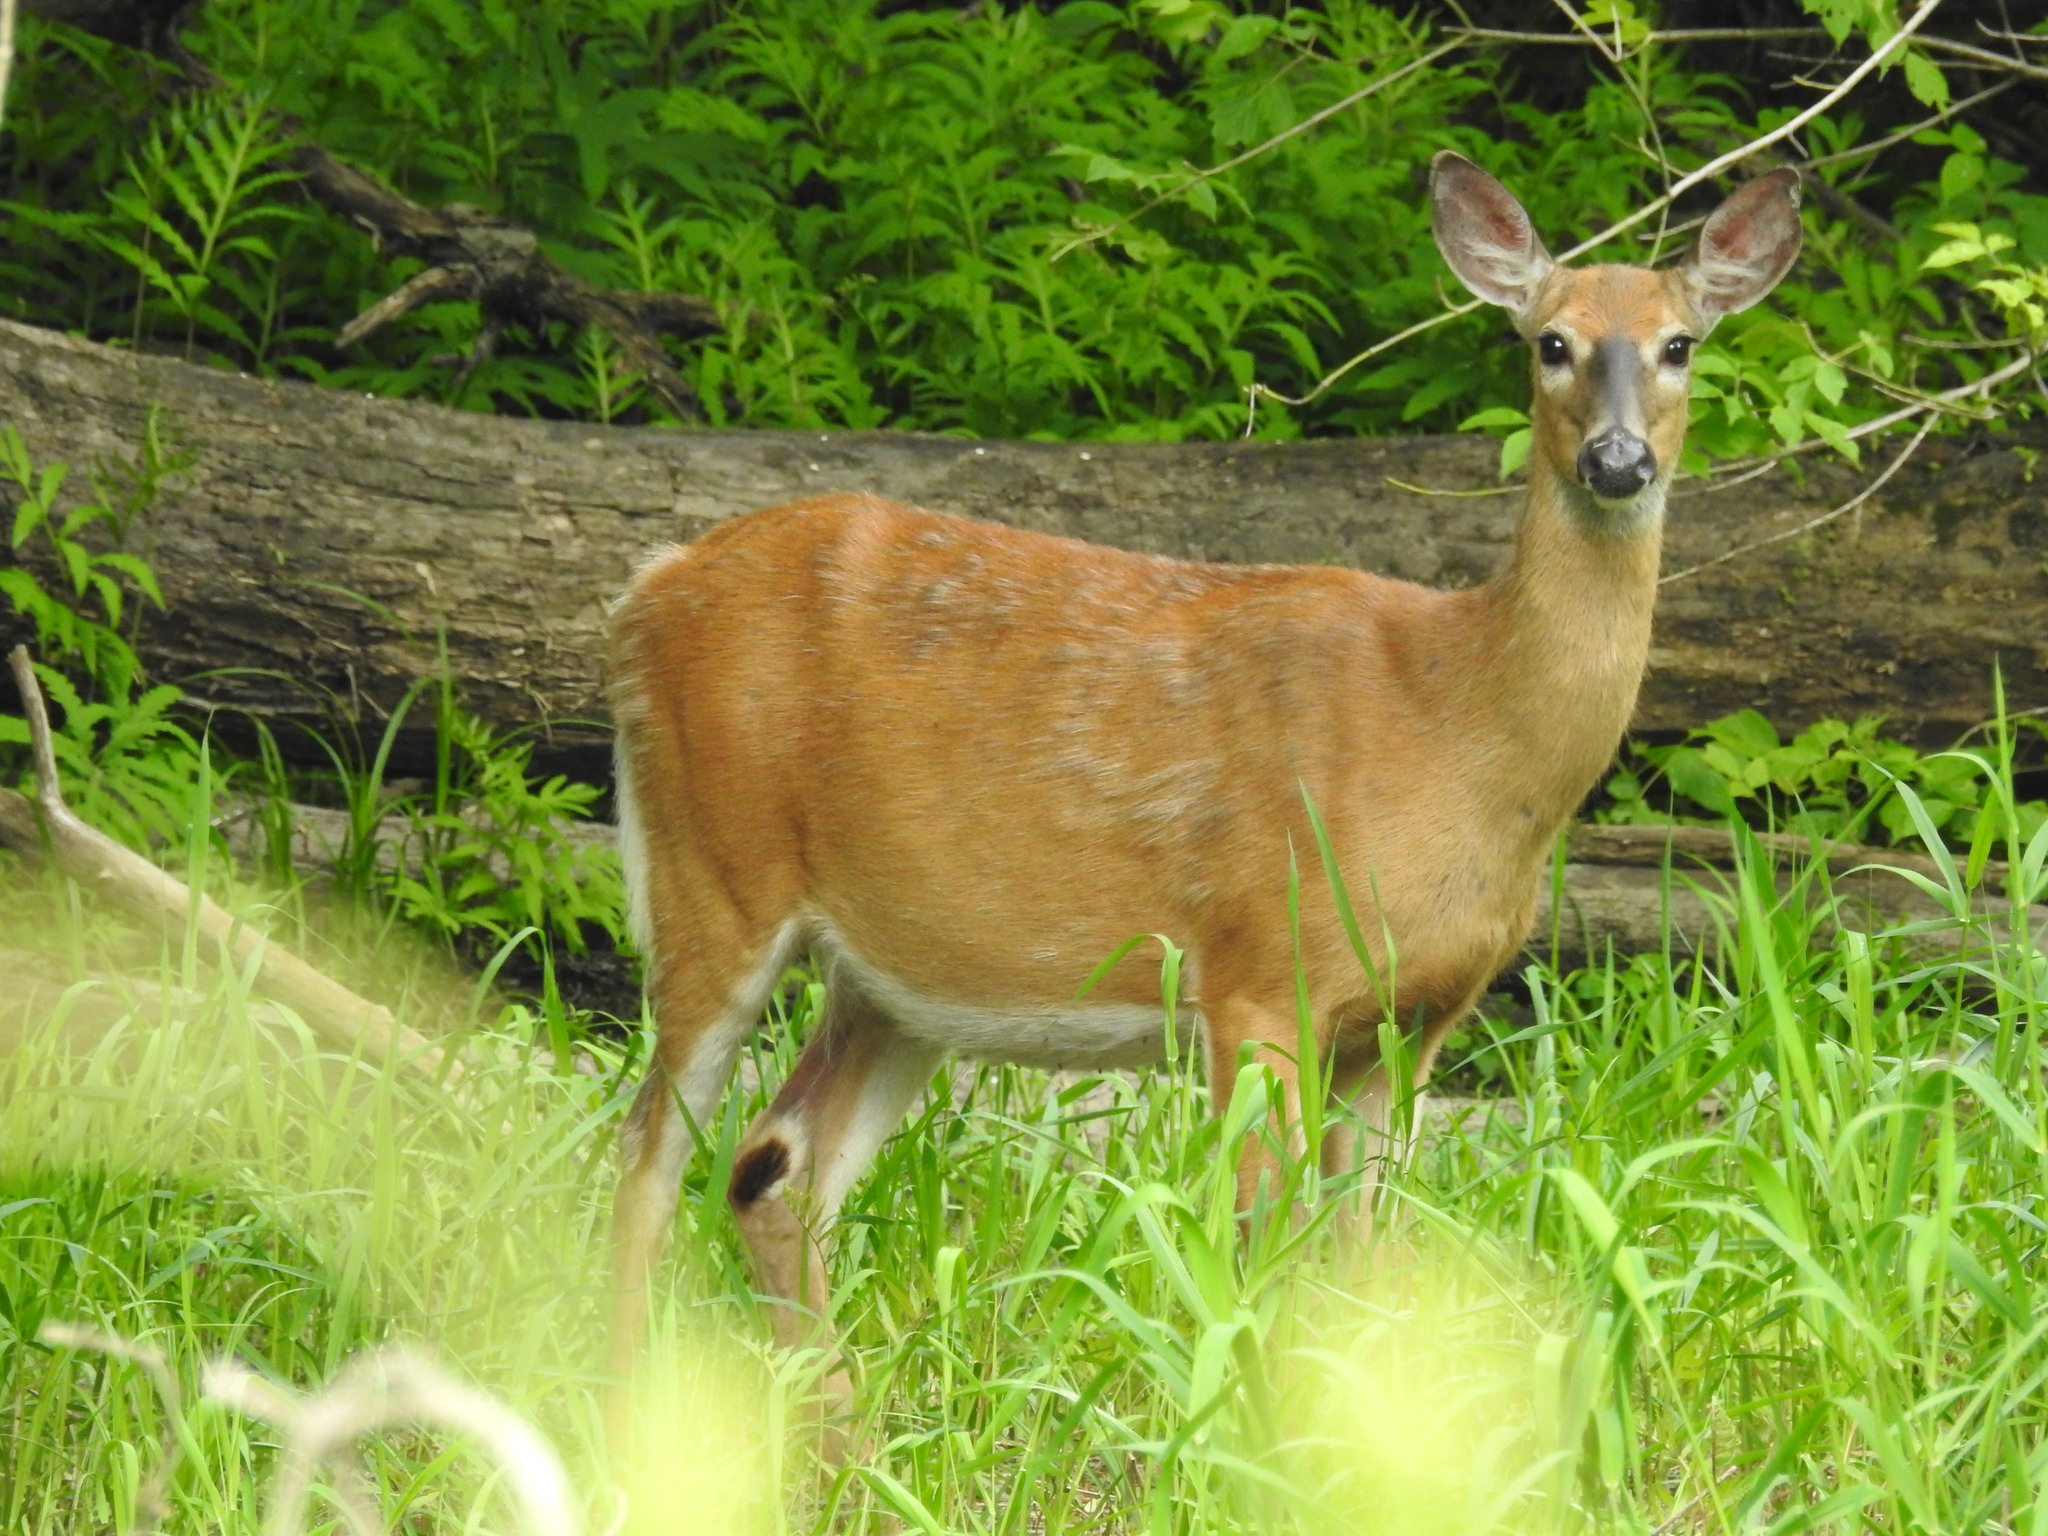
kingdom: Animalia
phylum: Chordata
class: Mammalia
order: Artiodactyla
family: Cervidae
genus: Odocoileus
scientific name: Odocoileus virginianus
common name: White-tailed deer
